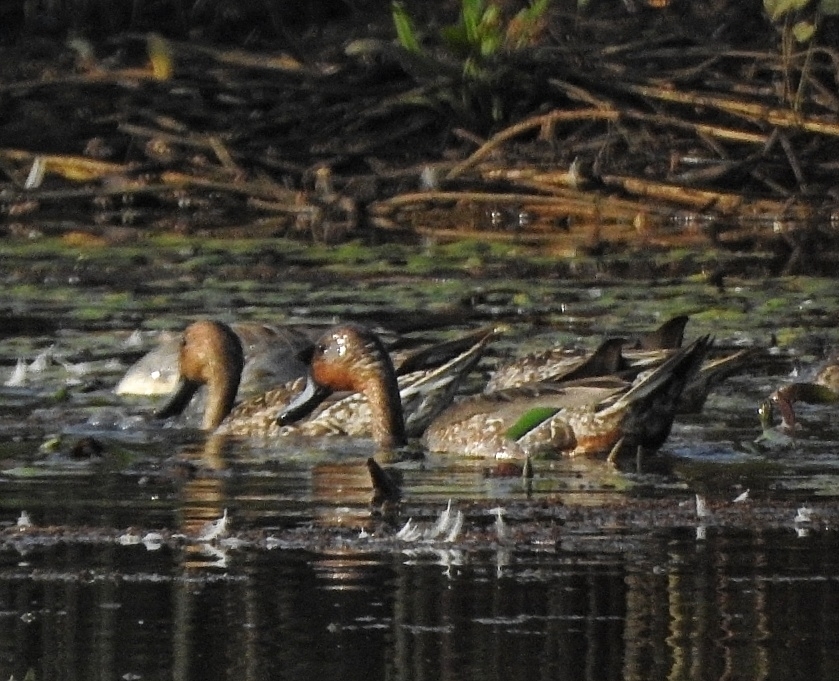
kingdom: Animalia
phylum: Chordata
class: Aves
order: Anseriformes
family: Anatidae
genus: Anas
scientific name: Anas acuta
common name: Northern pintail
